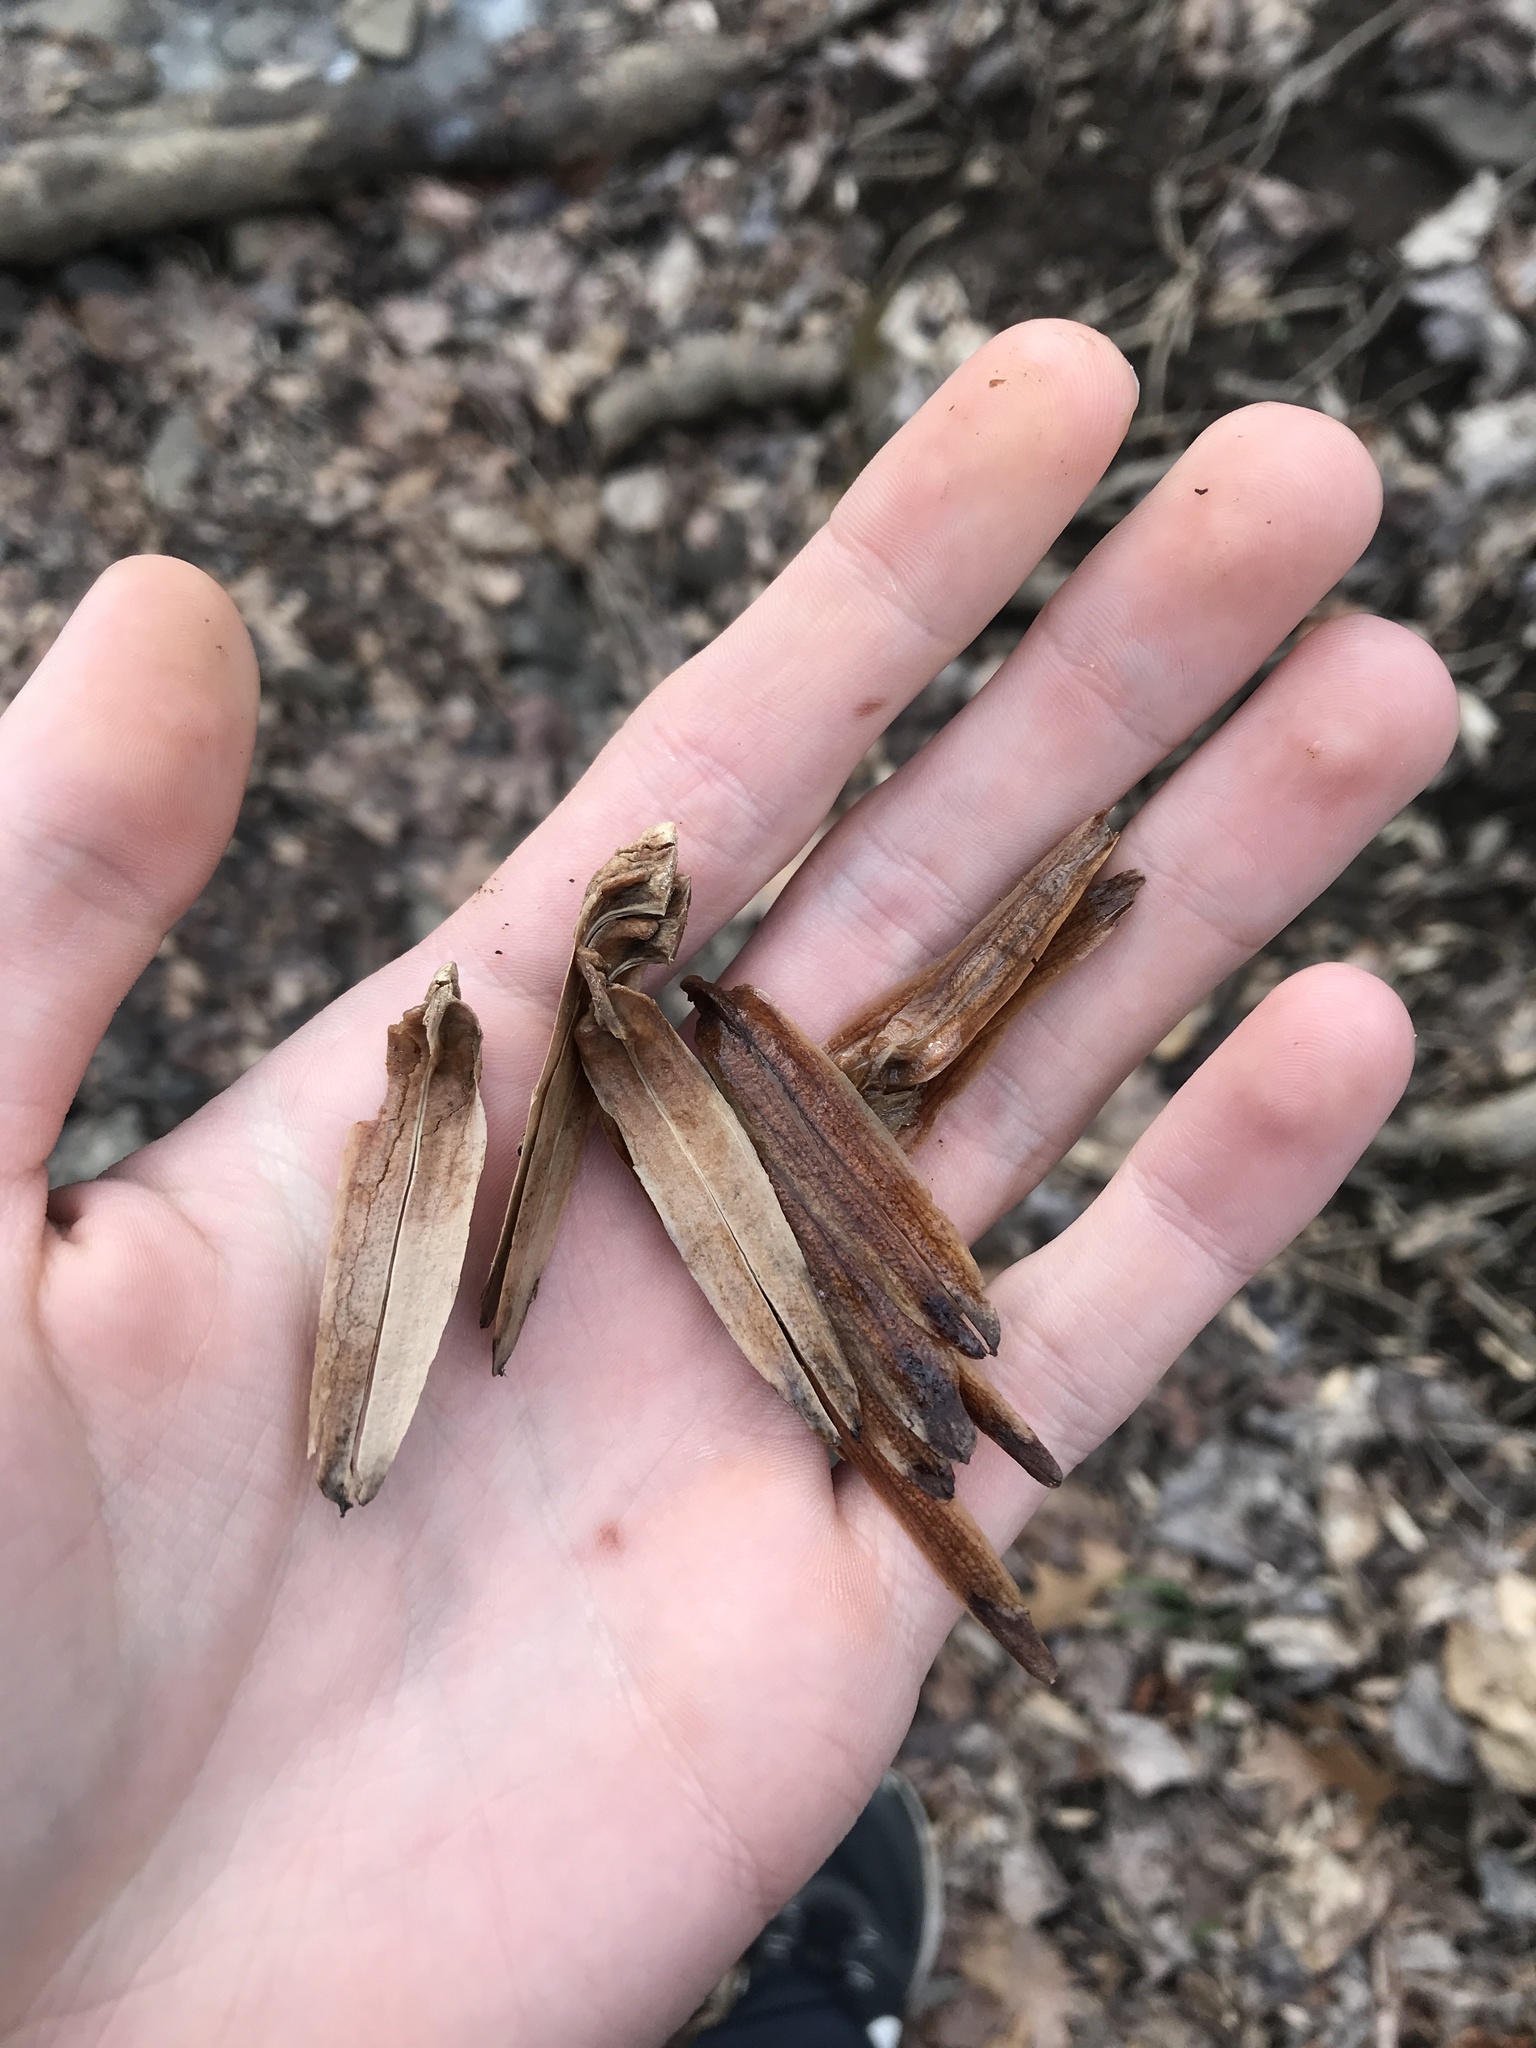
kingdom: Plantae
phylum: Tracheophyta
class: Magnoliopsida
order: Magnoliales
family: Magnoliaceae
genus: Liriodendron
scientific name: Liriodendron tulipifera
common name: Tulip tree
